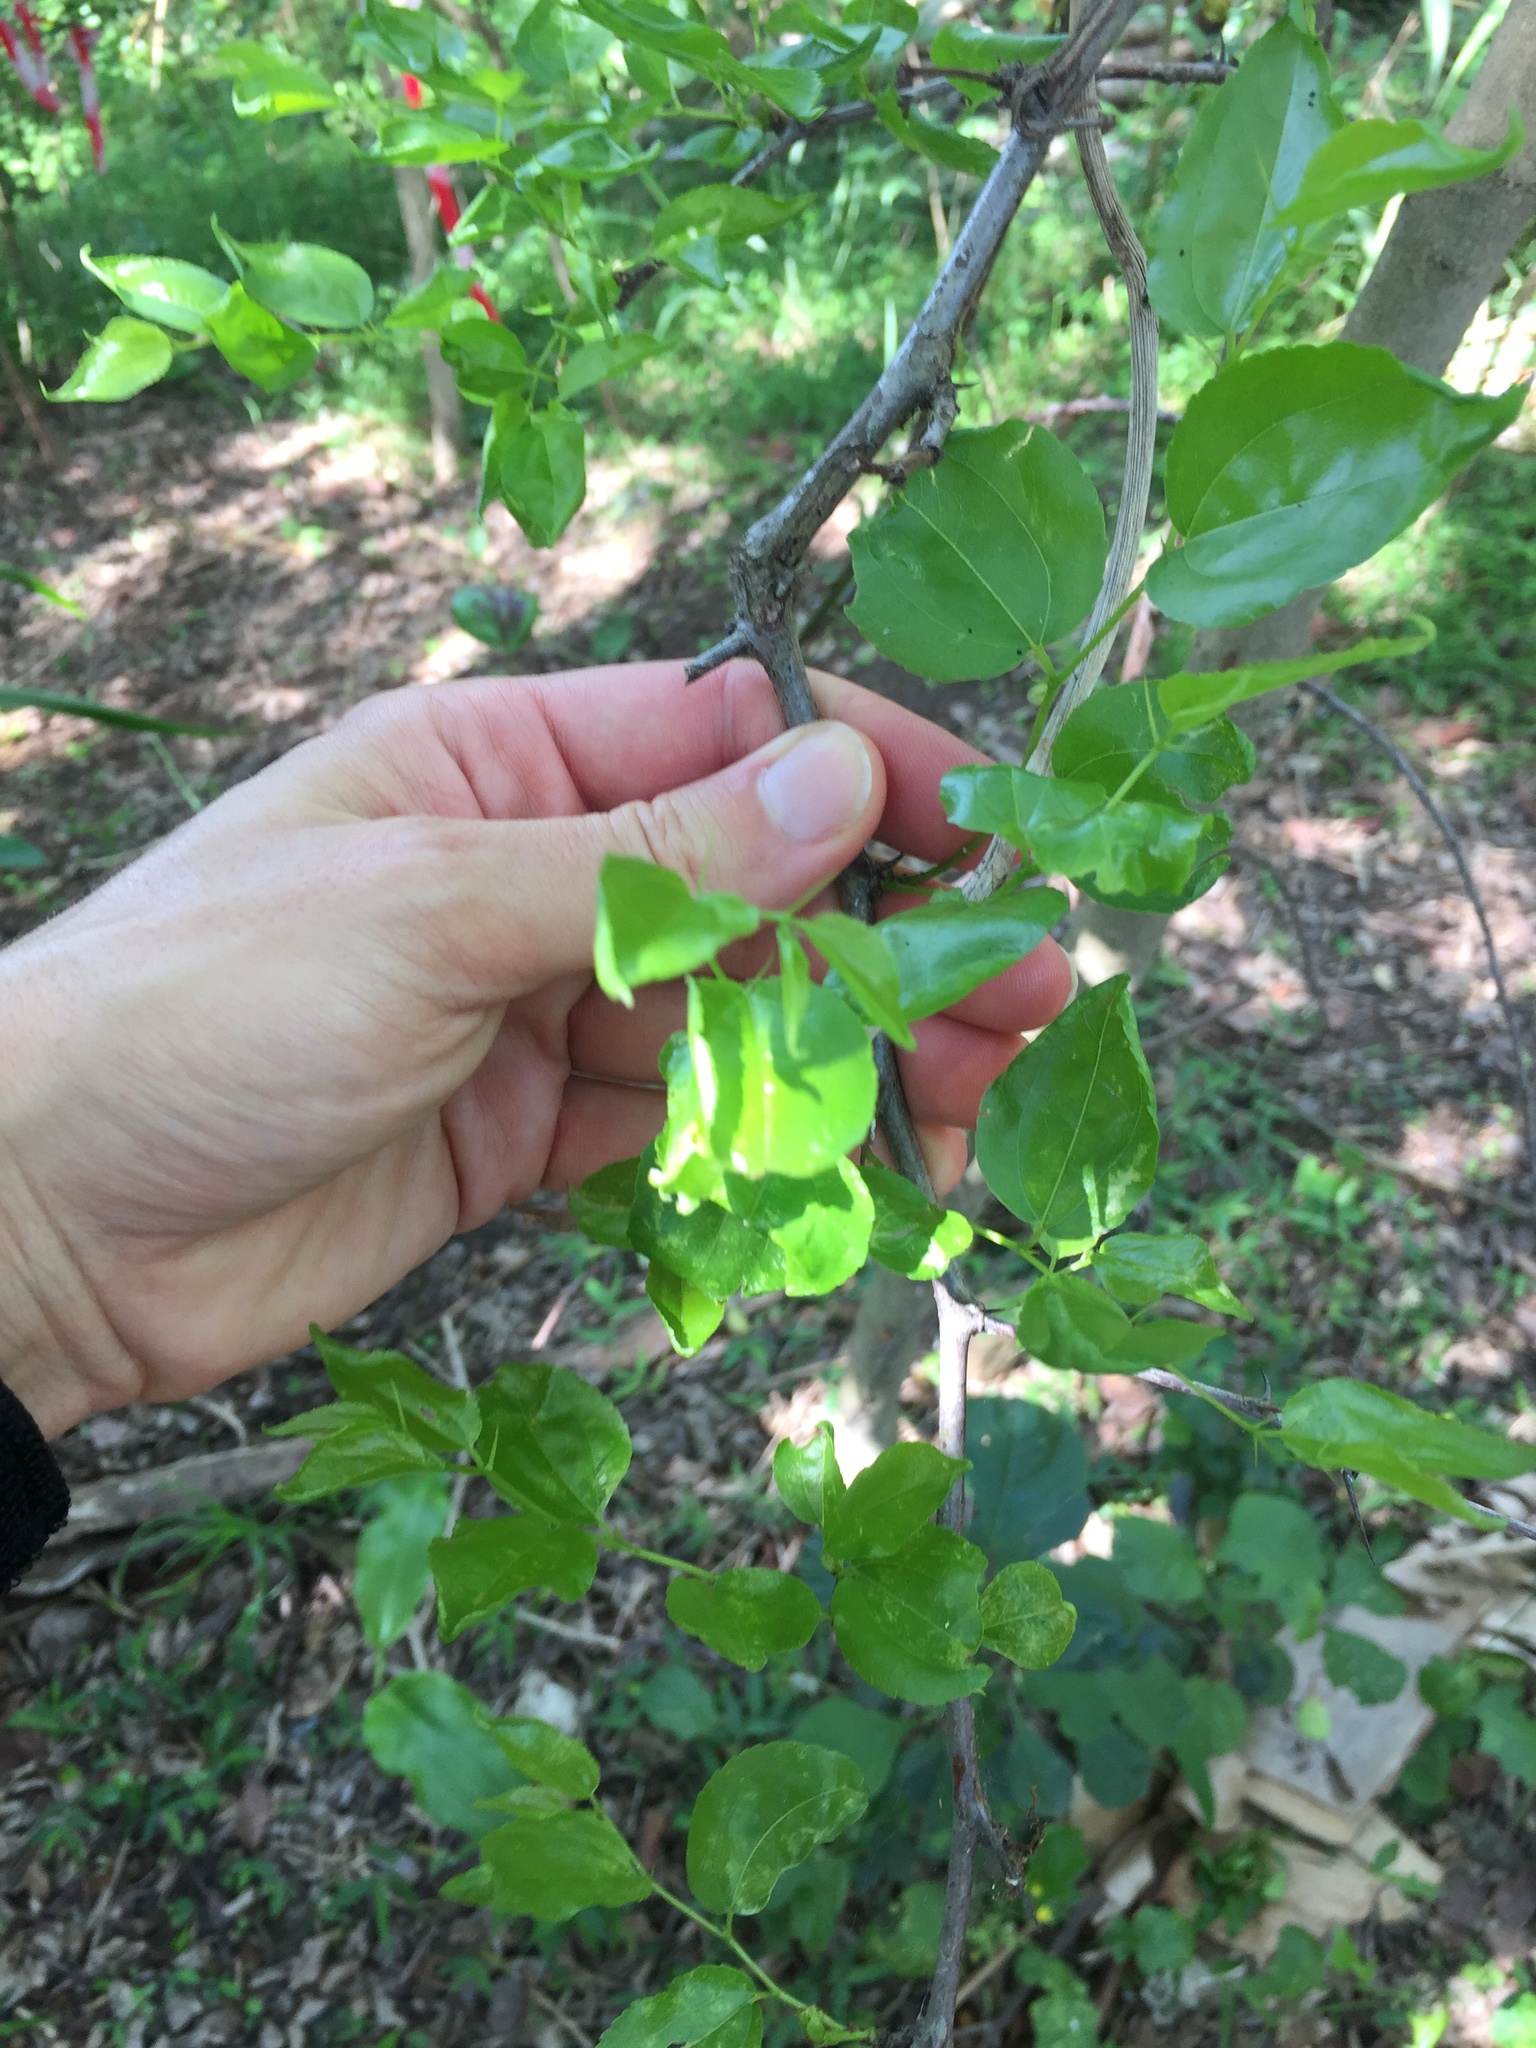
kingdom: Plantae
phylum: Tracheophyta
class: Magnoliopsida
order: Rosales
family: Rhamnaceae
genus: Ziziphus
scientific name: Ziziphus mucronata
